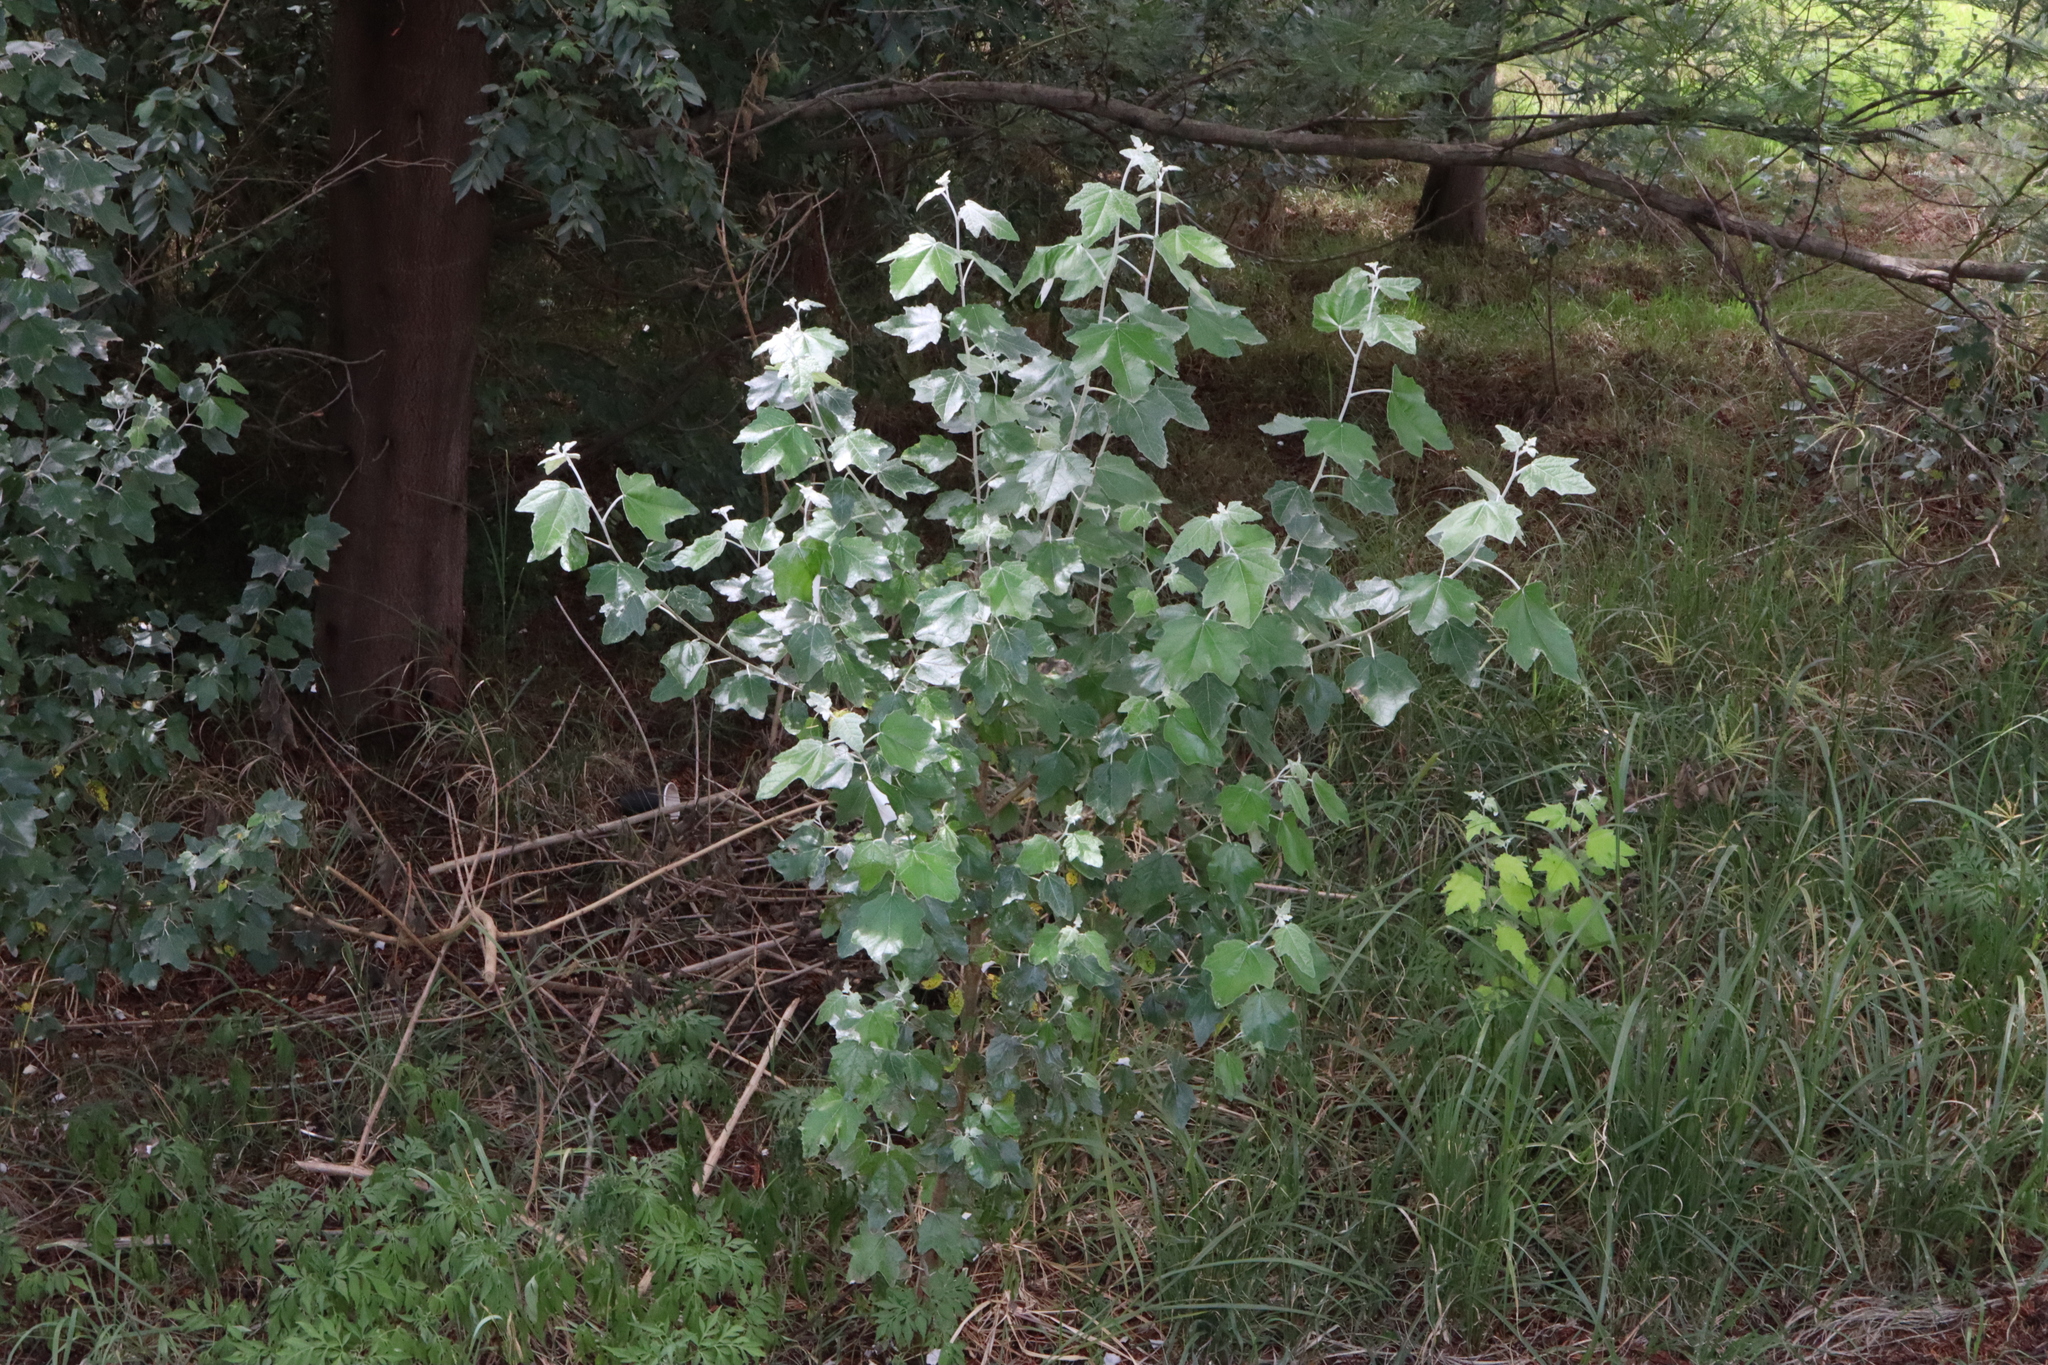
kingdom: Plantae
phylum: Tracheophyta
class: Magnoliopsida
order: Malpighiales
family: Salicaceae
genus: Populus
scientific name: Populus alba
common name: White poplar
